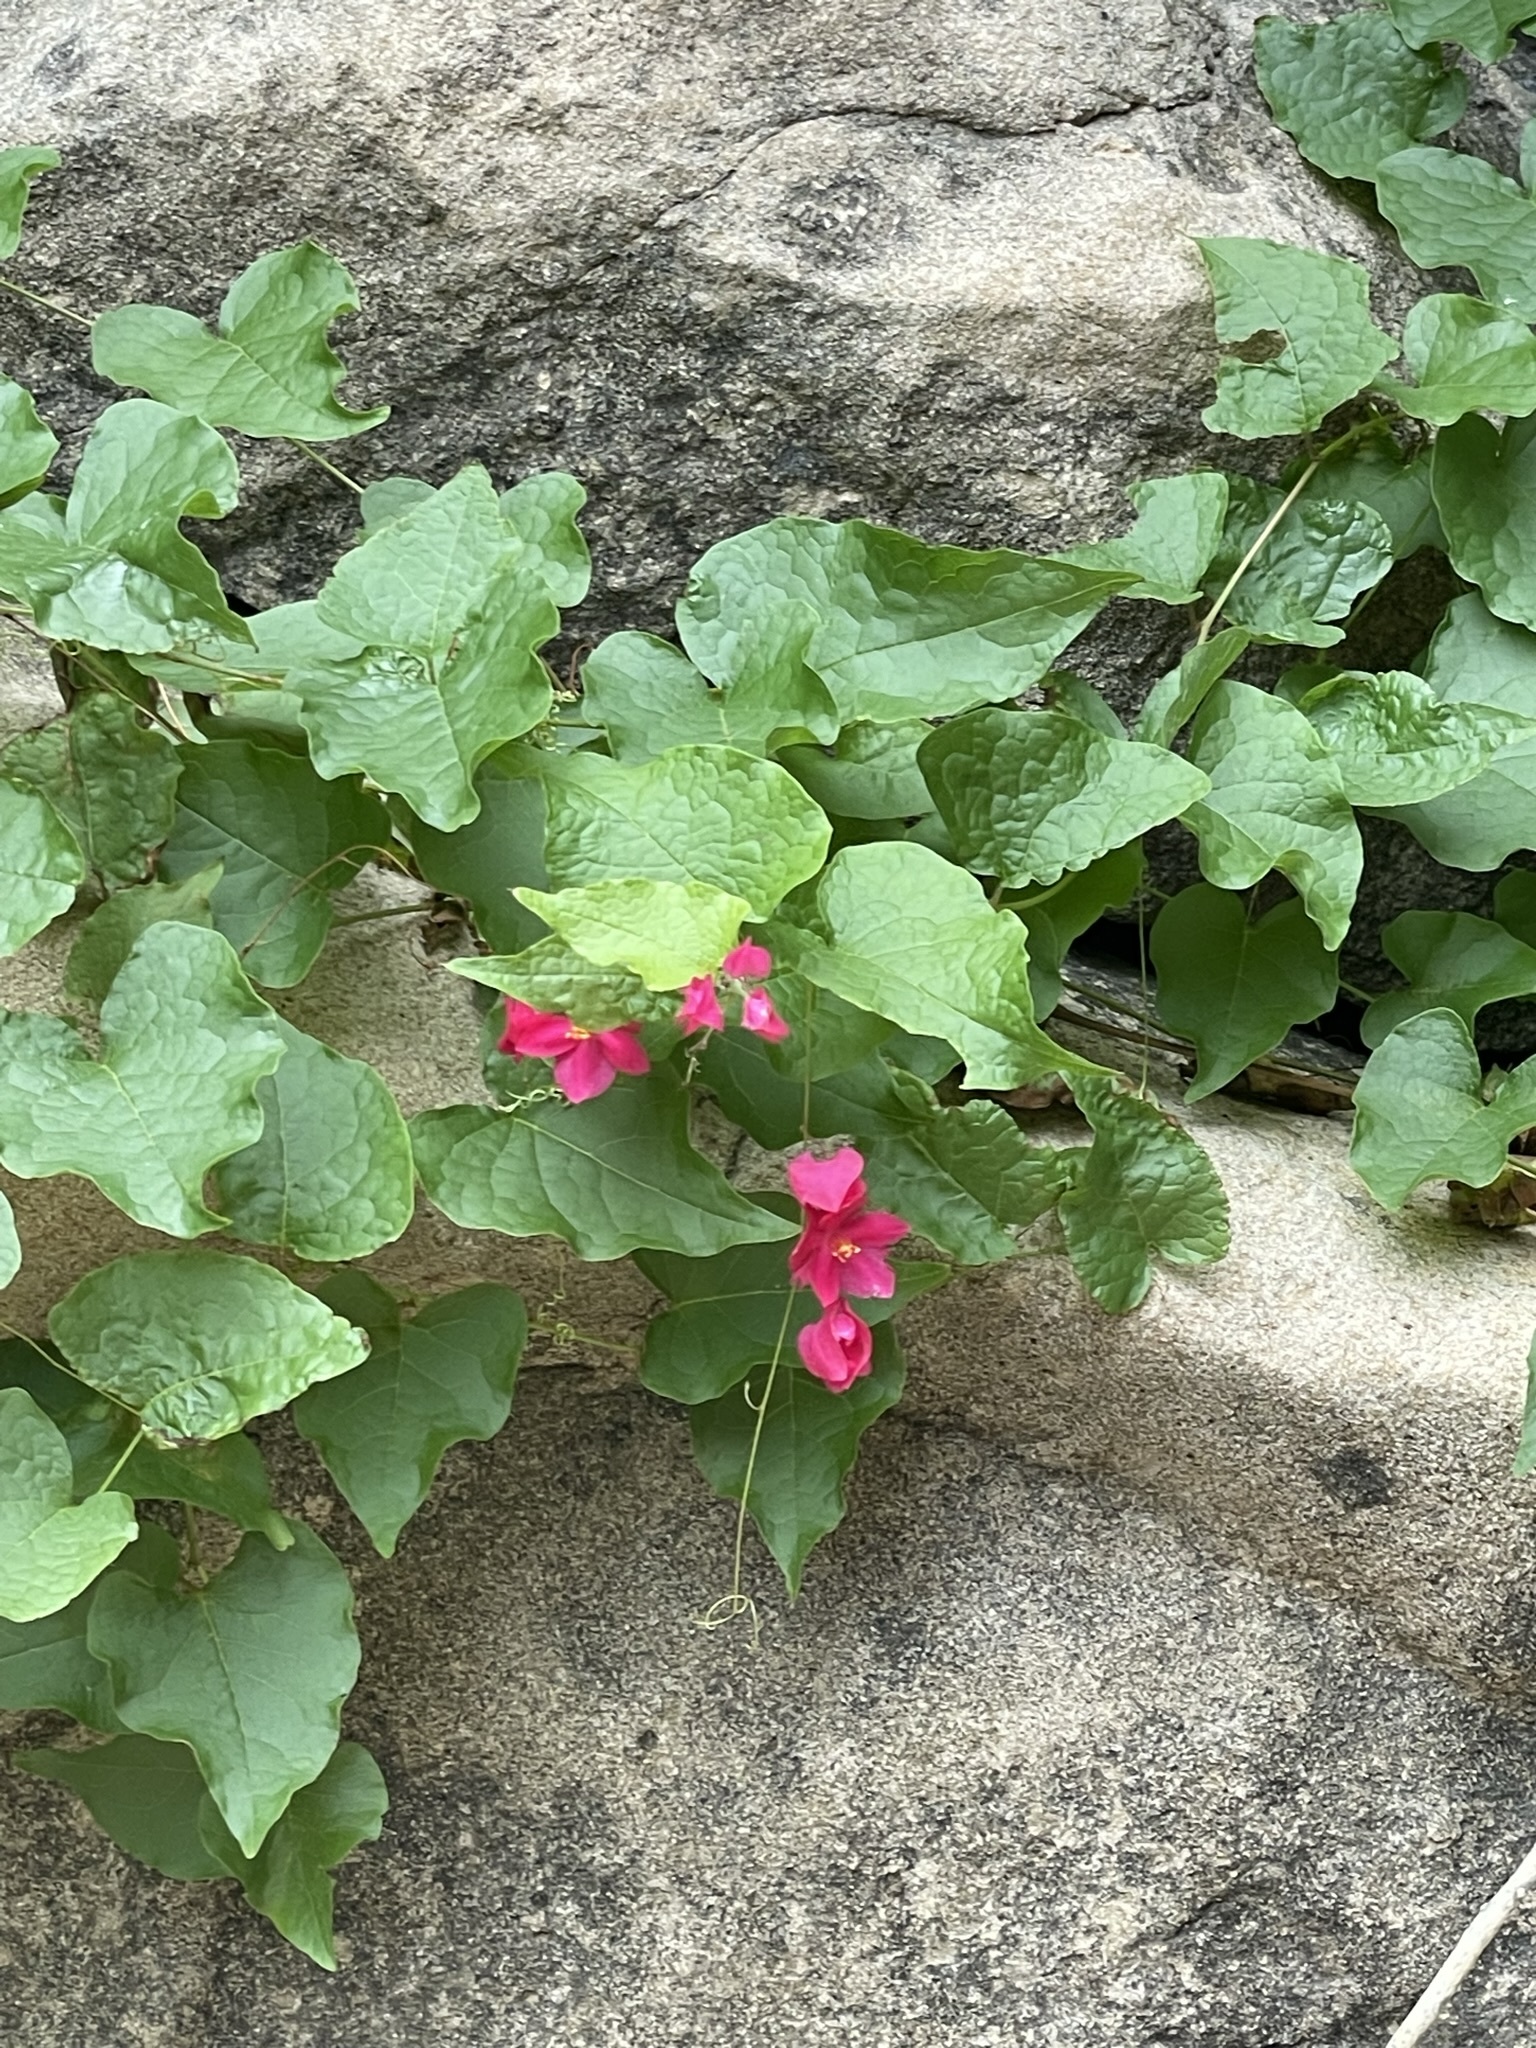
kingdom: Plantae
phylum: Tracheophyta
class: Magnoliopsida
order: Caryophyllales
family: Polygonaceae
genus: Antigonon
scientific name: Antigonon leptopus
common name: Coral vine
